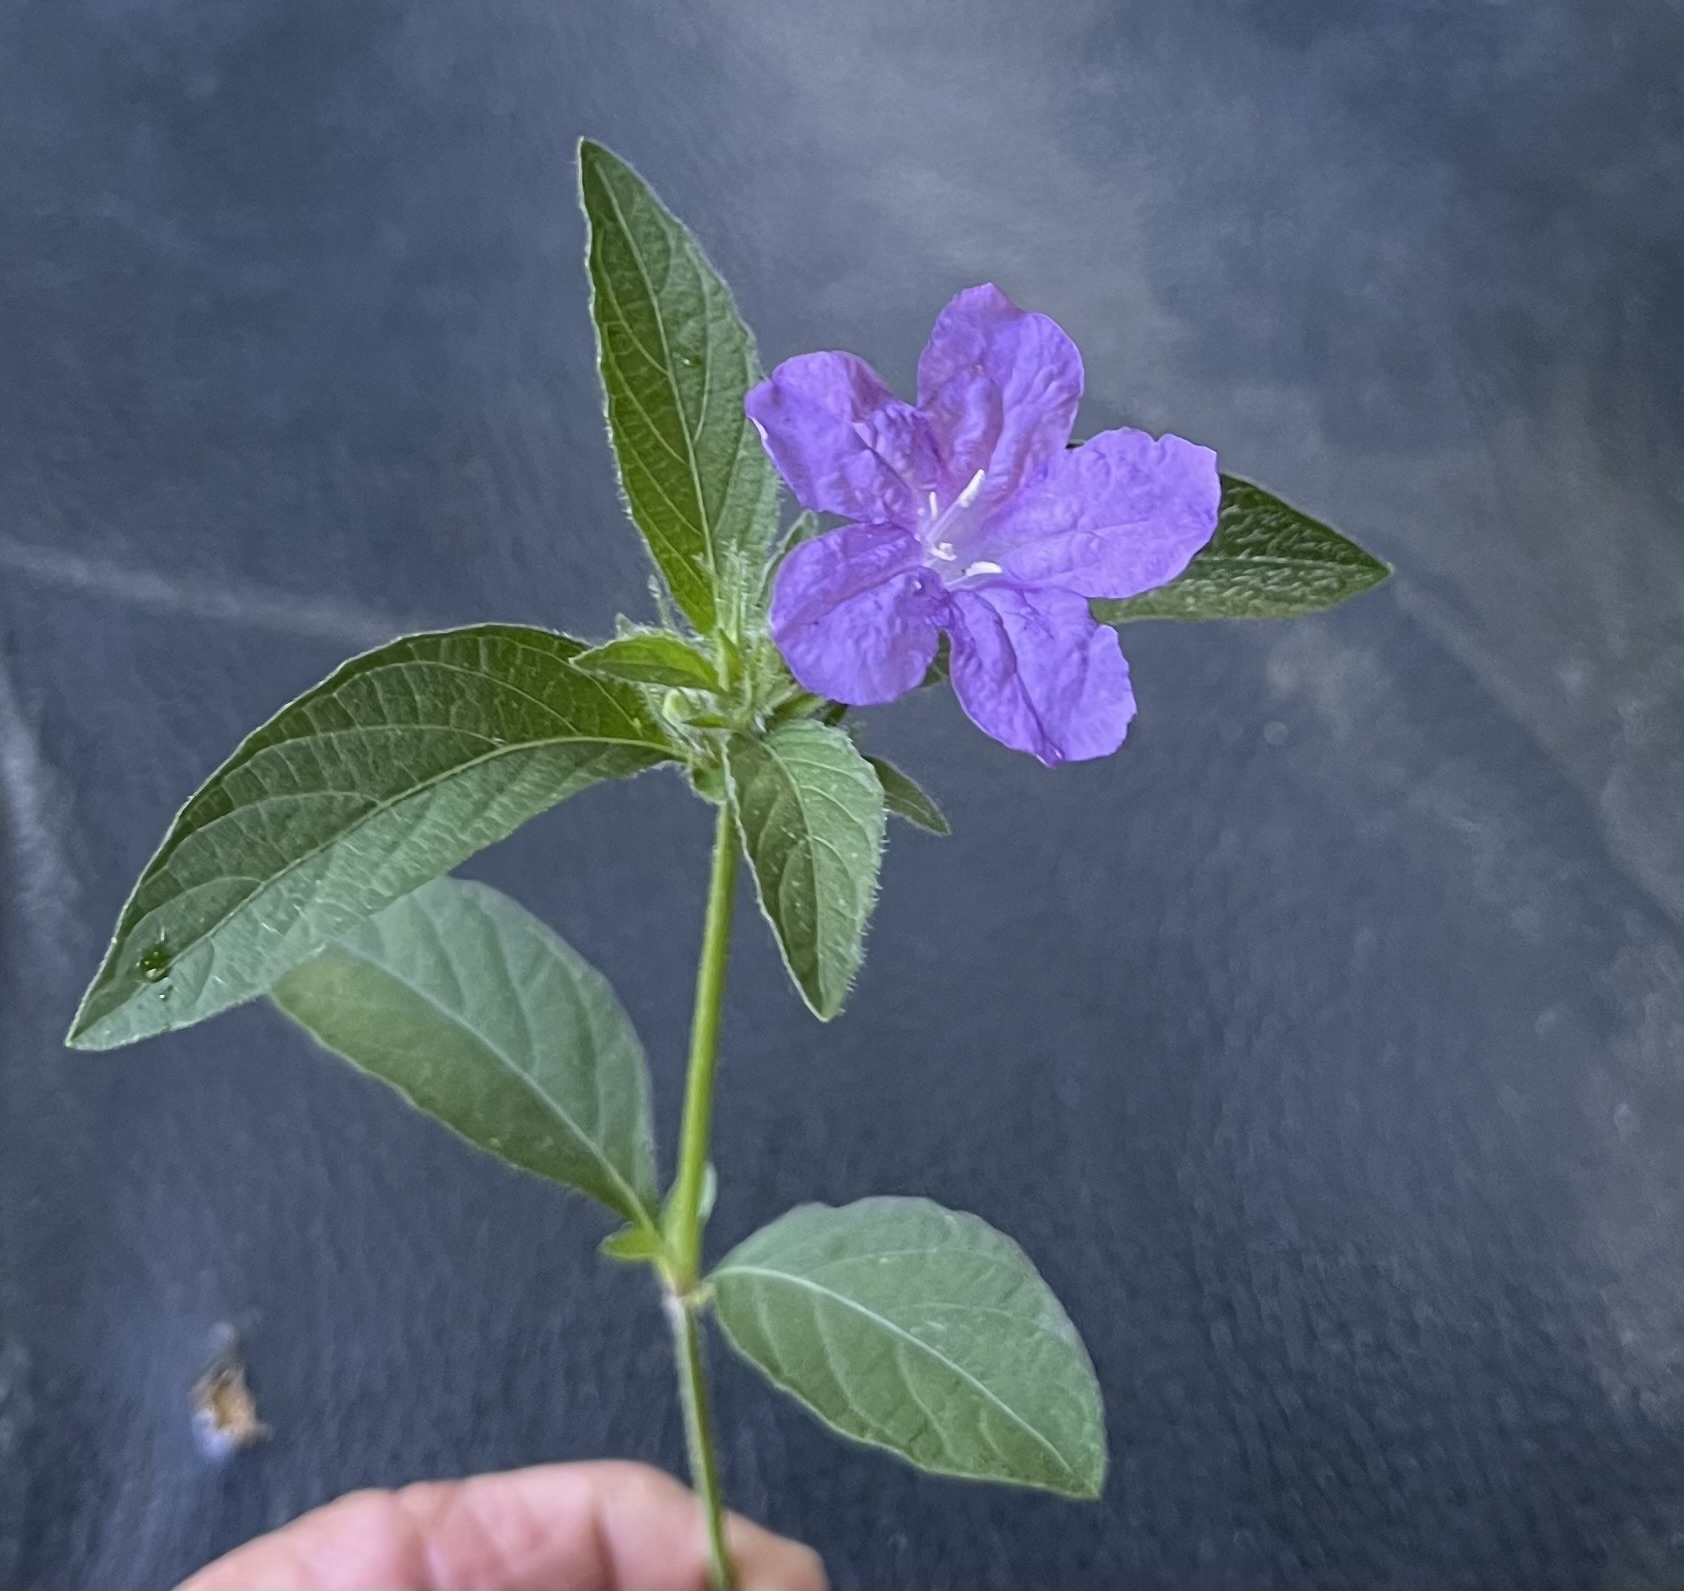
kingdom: Plantae
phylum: Tracheophyta
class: Magnoliopsida
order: Lamiales
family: Acanthaceae
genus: Ruellia
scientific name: Ruellia caroliniensis
